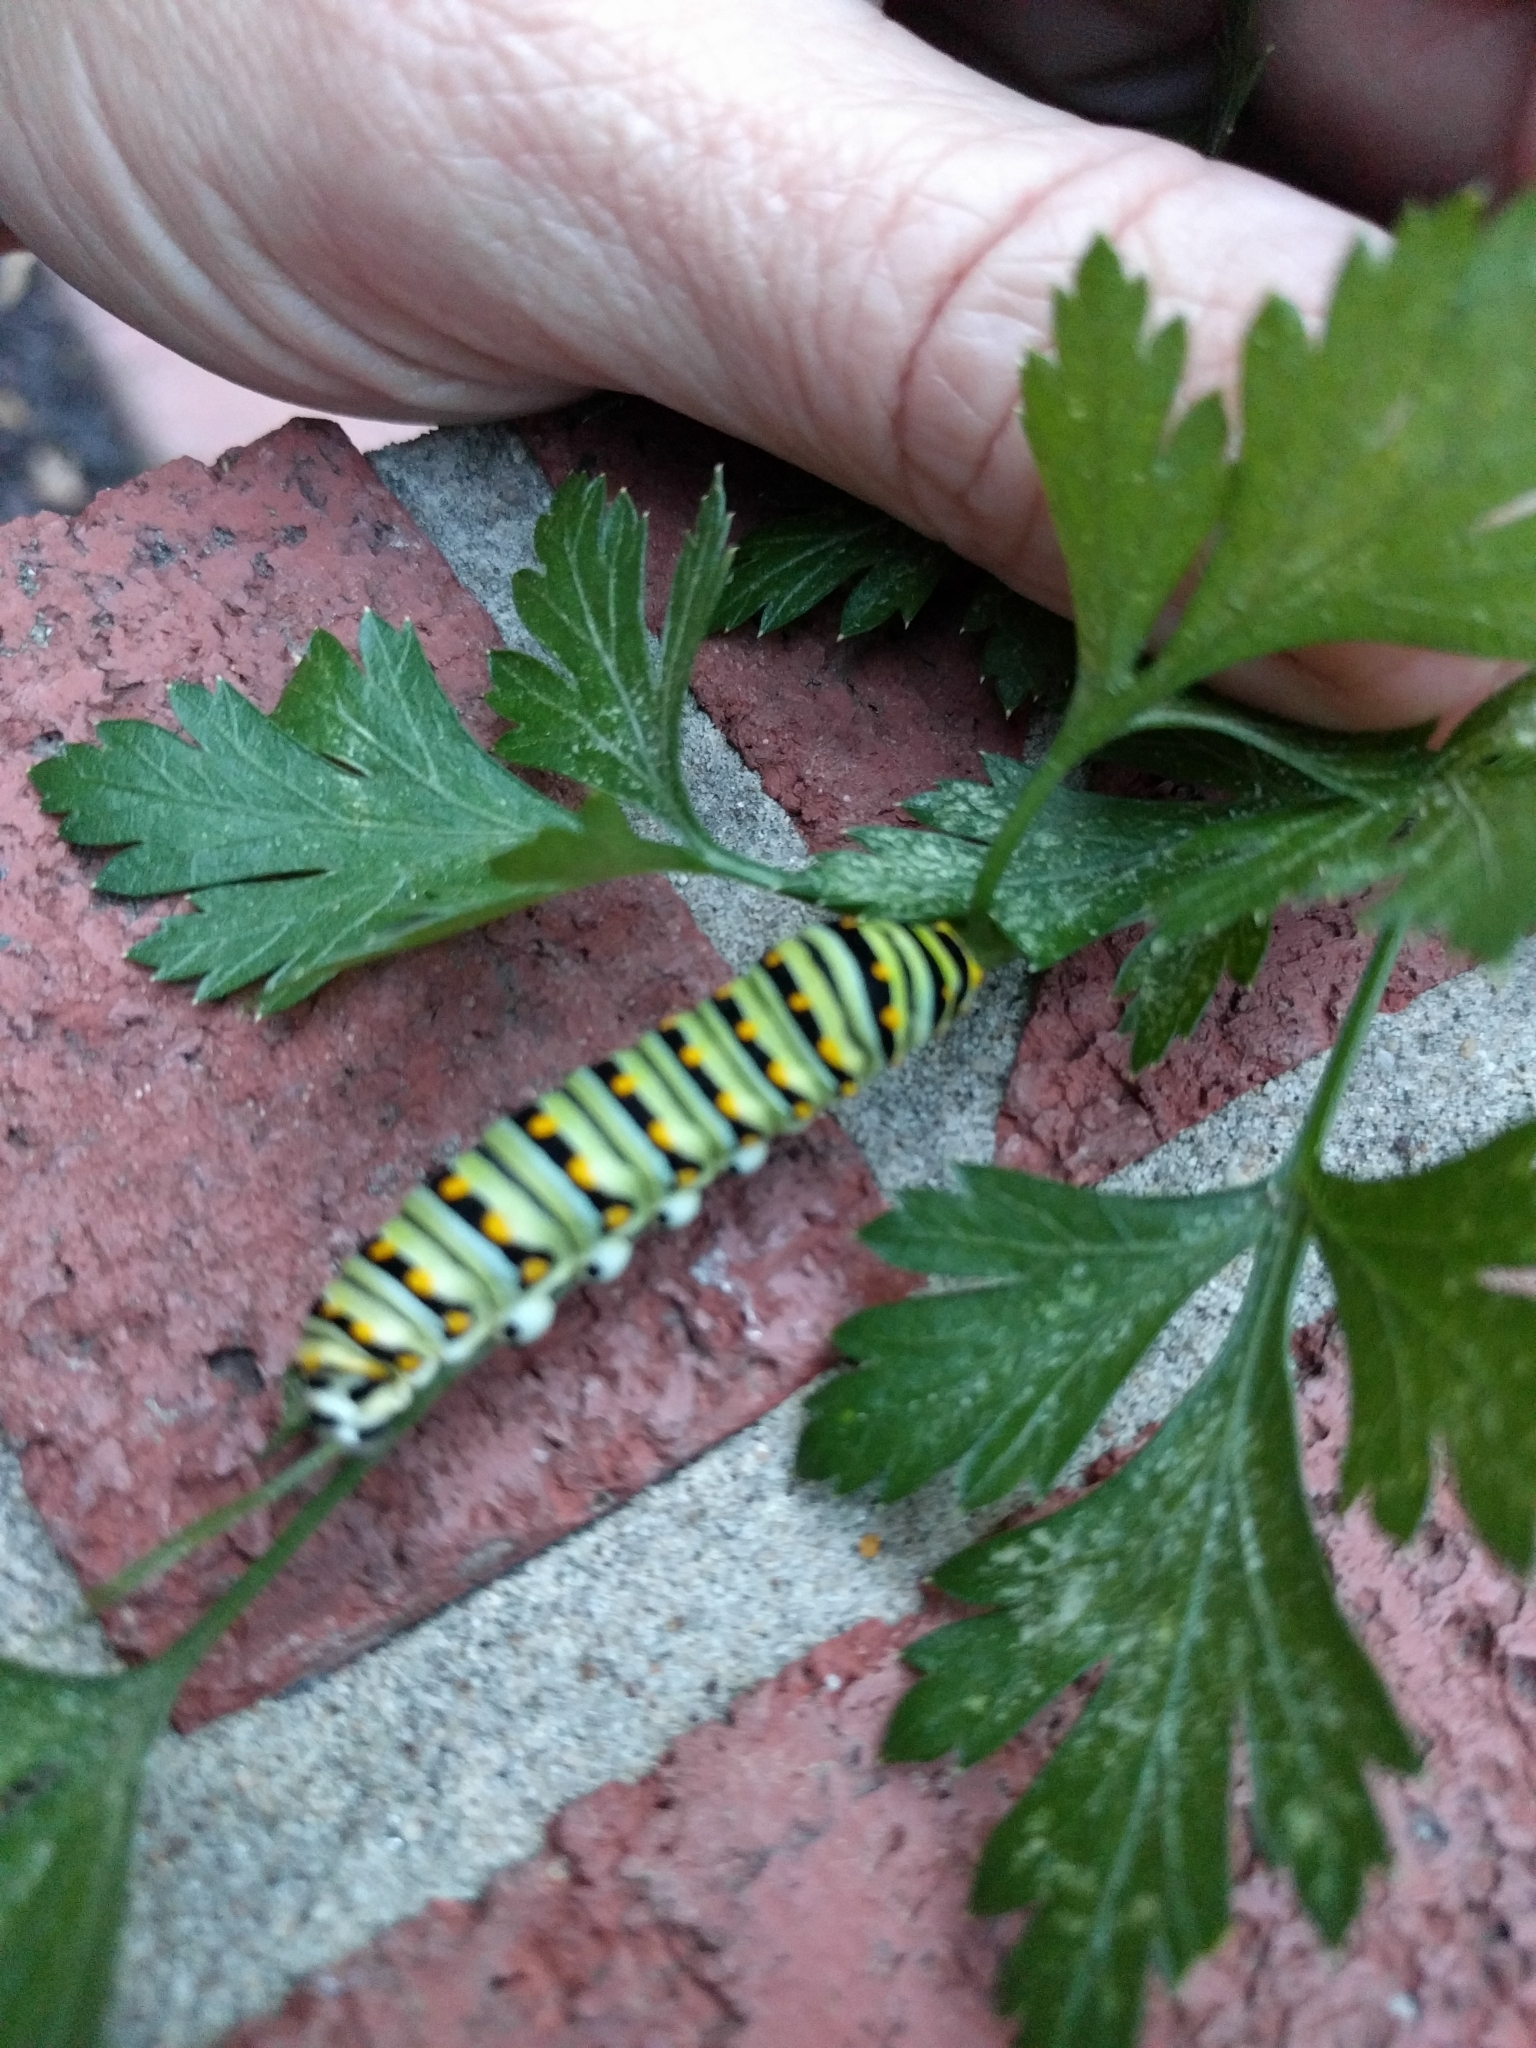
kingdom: Animalia
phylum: Arthropoda
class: Insecta
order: Lepidoptera
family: Papilionidae
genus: Papilio
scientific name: Papilio polyxenes
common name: Black swallowtail
